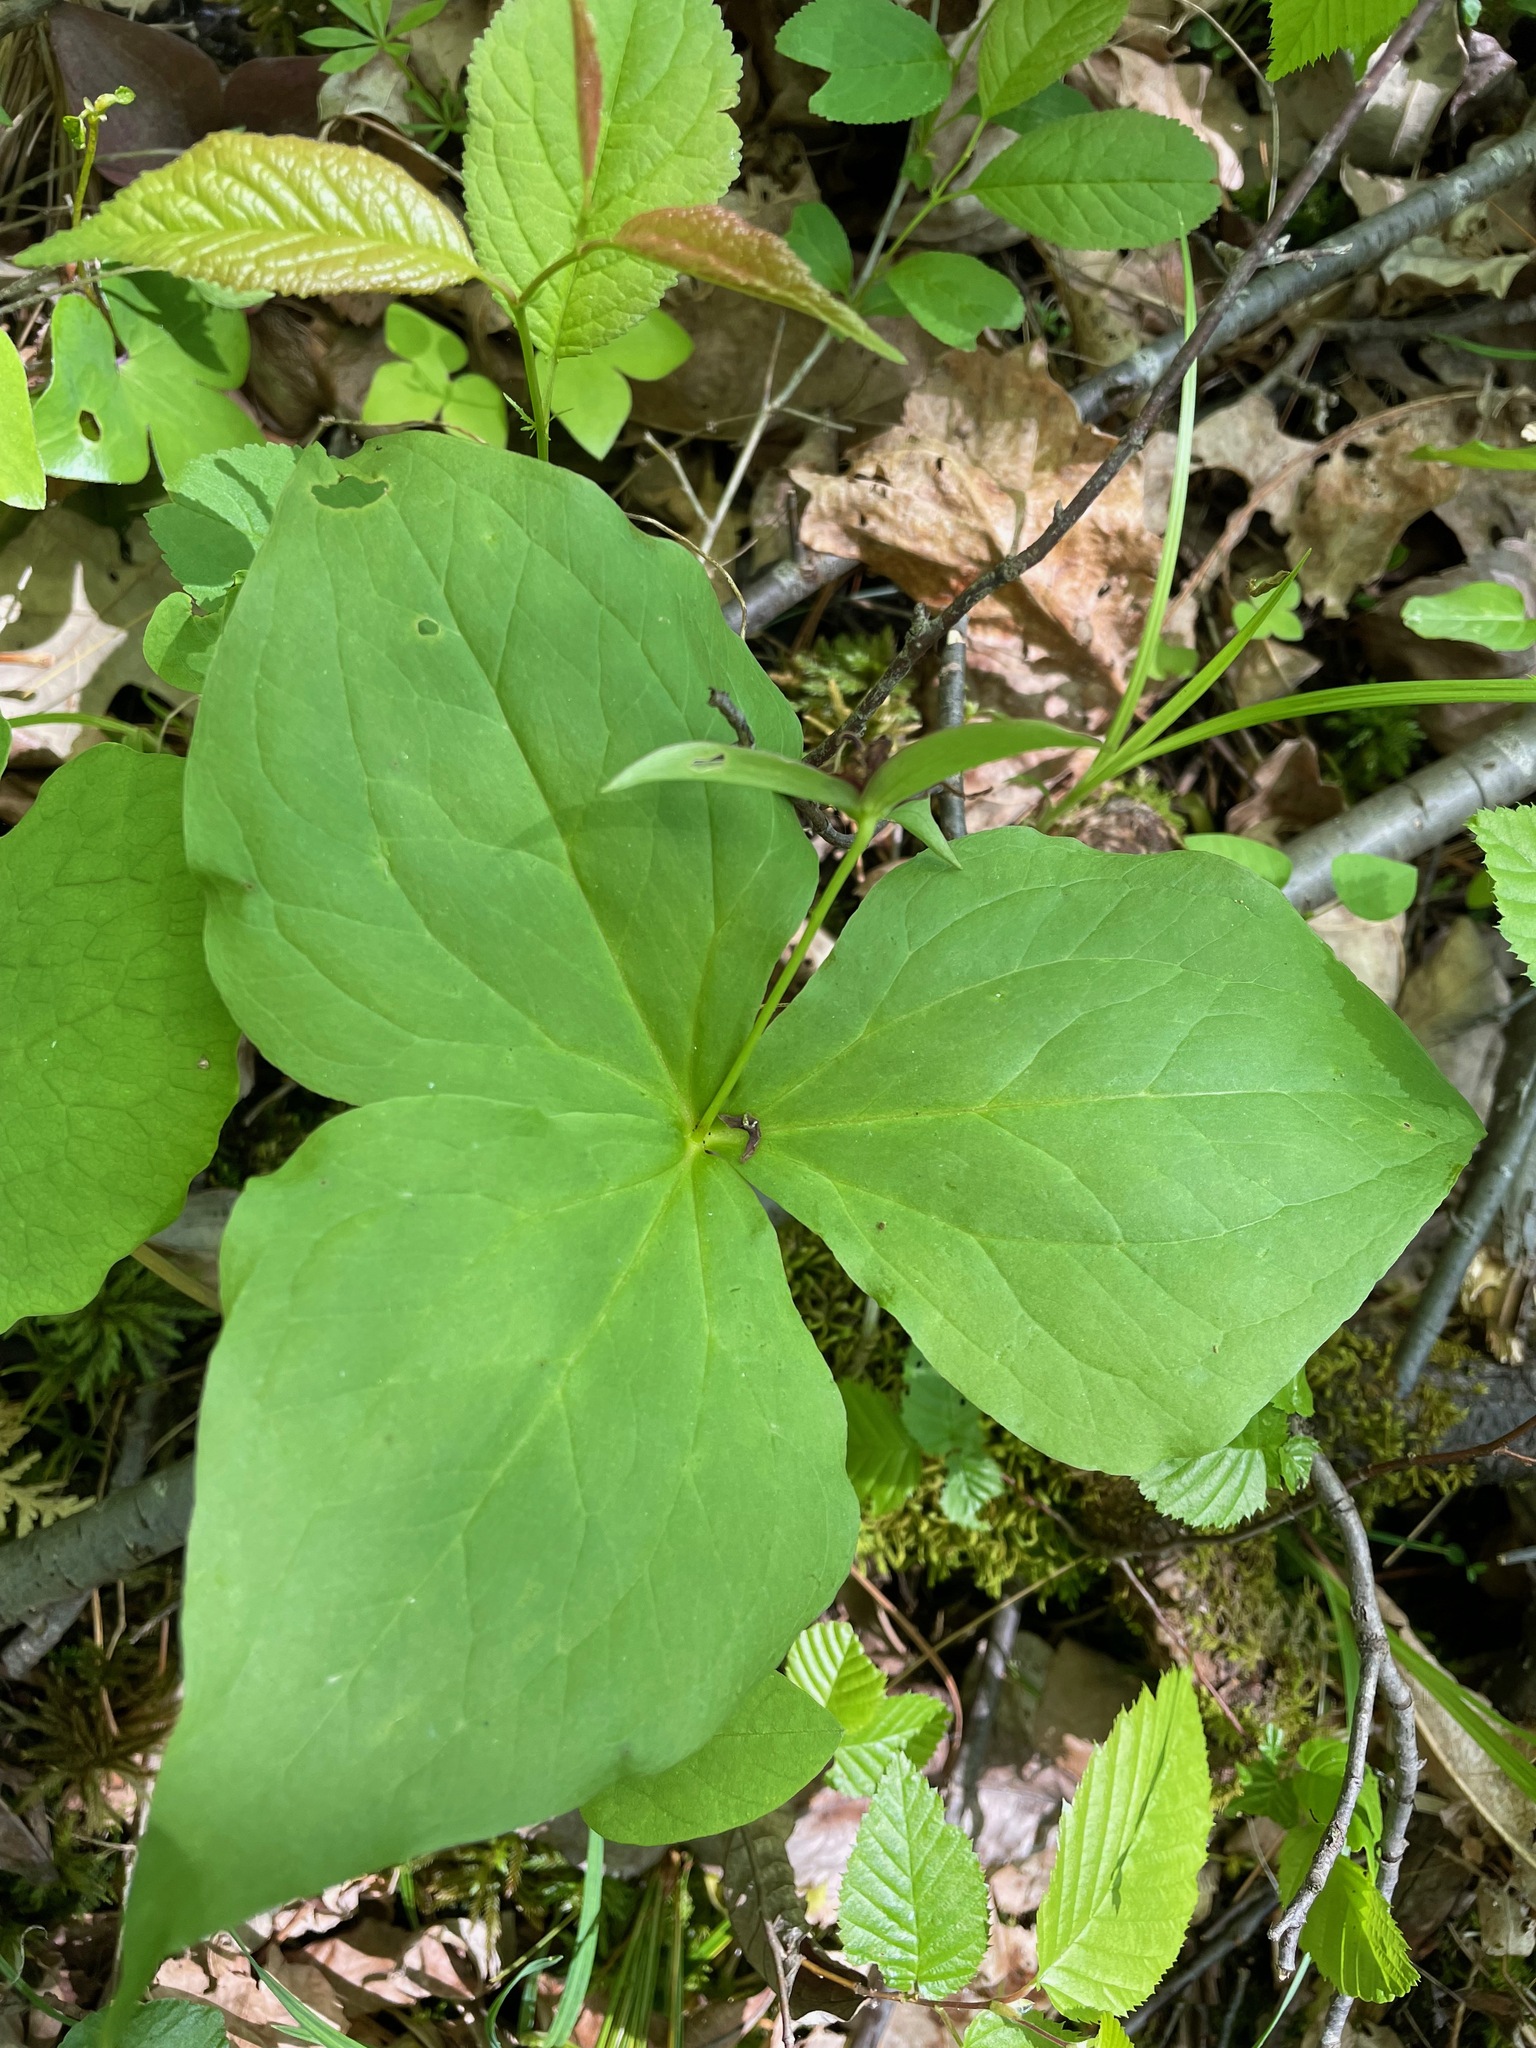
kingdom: Plantae
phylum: Tracheophyta
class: Liliopsida
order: Liliales
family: Melanthiaceae
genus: Trillium
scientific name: Trillium erectum
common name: Purple trillium
